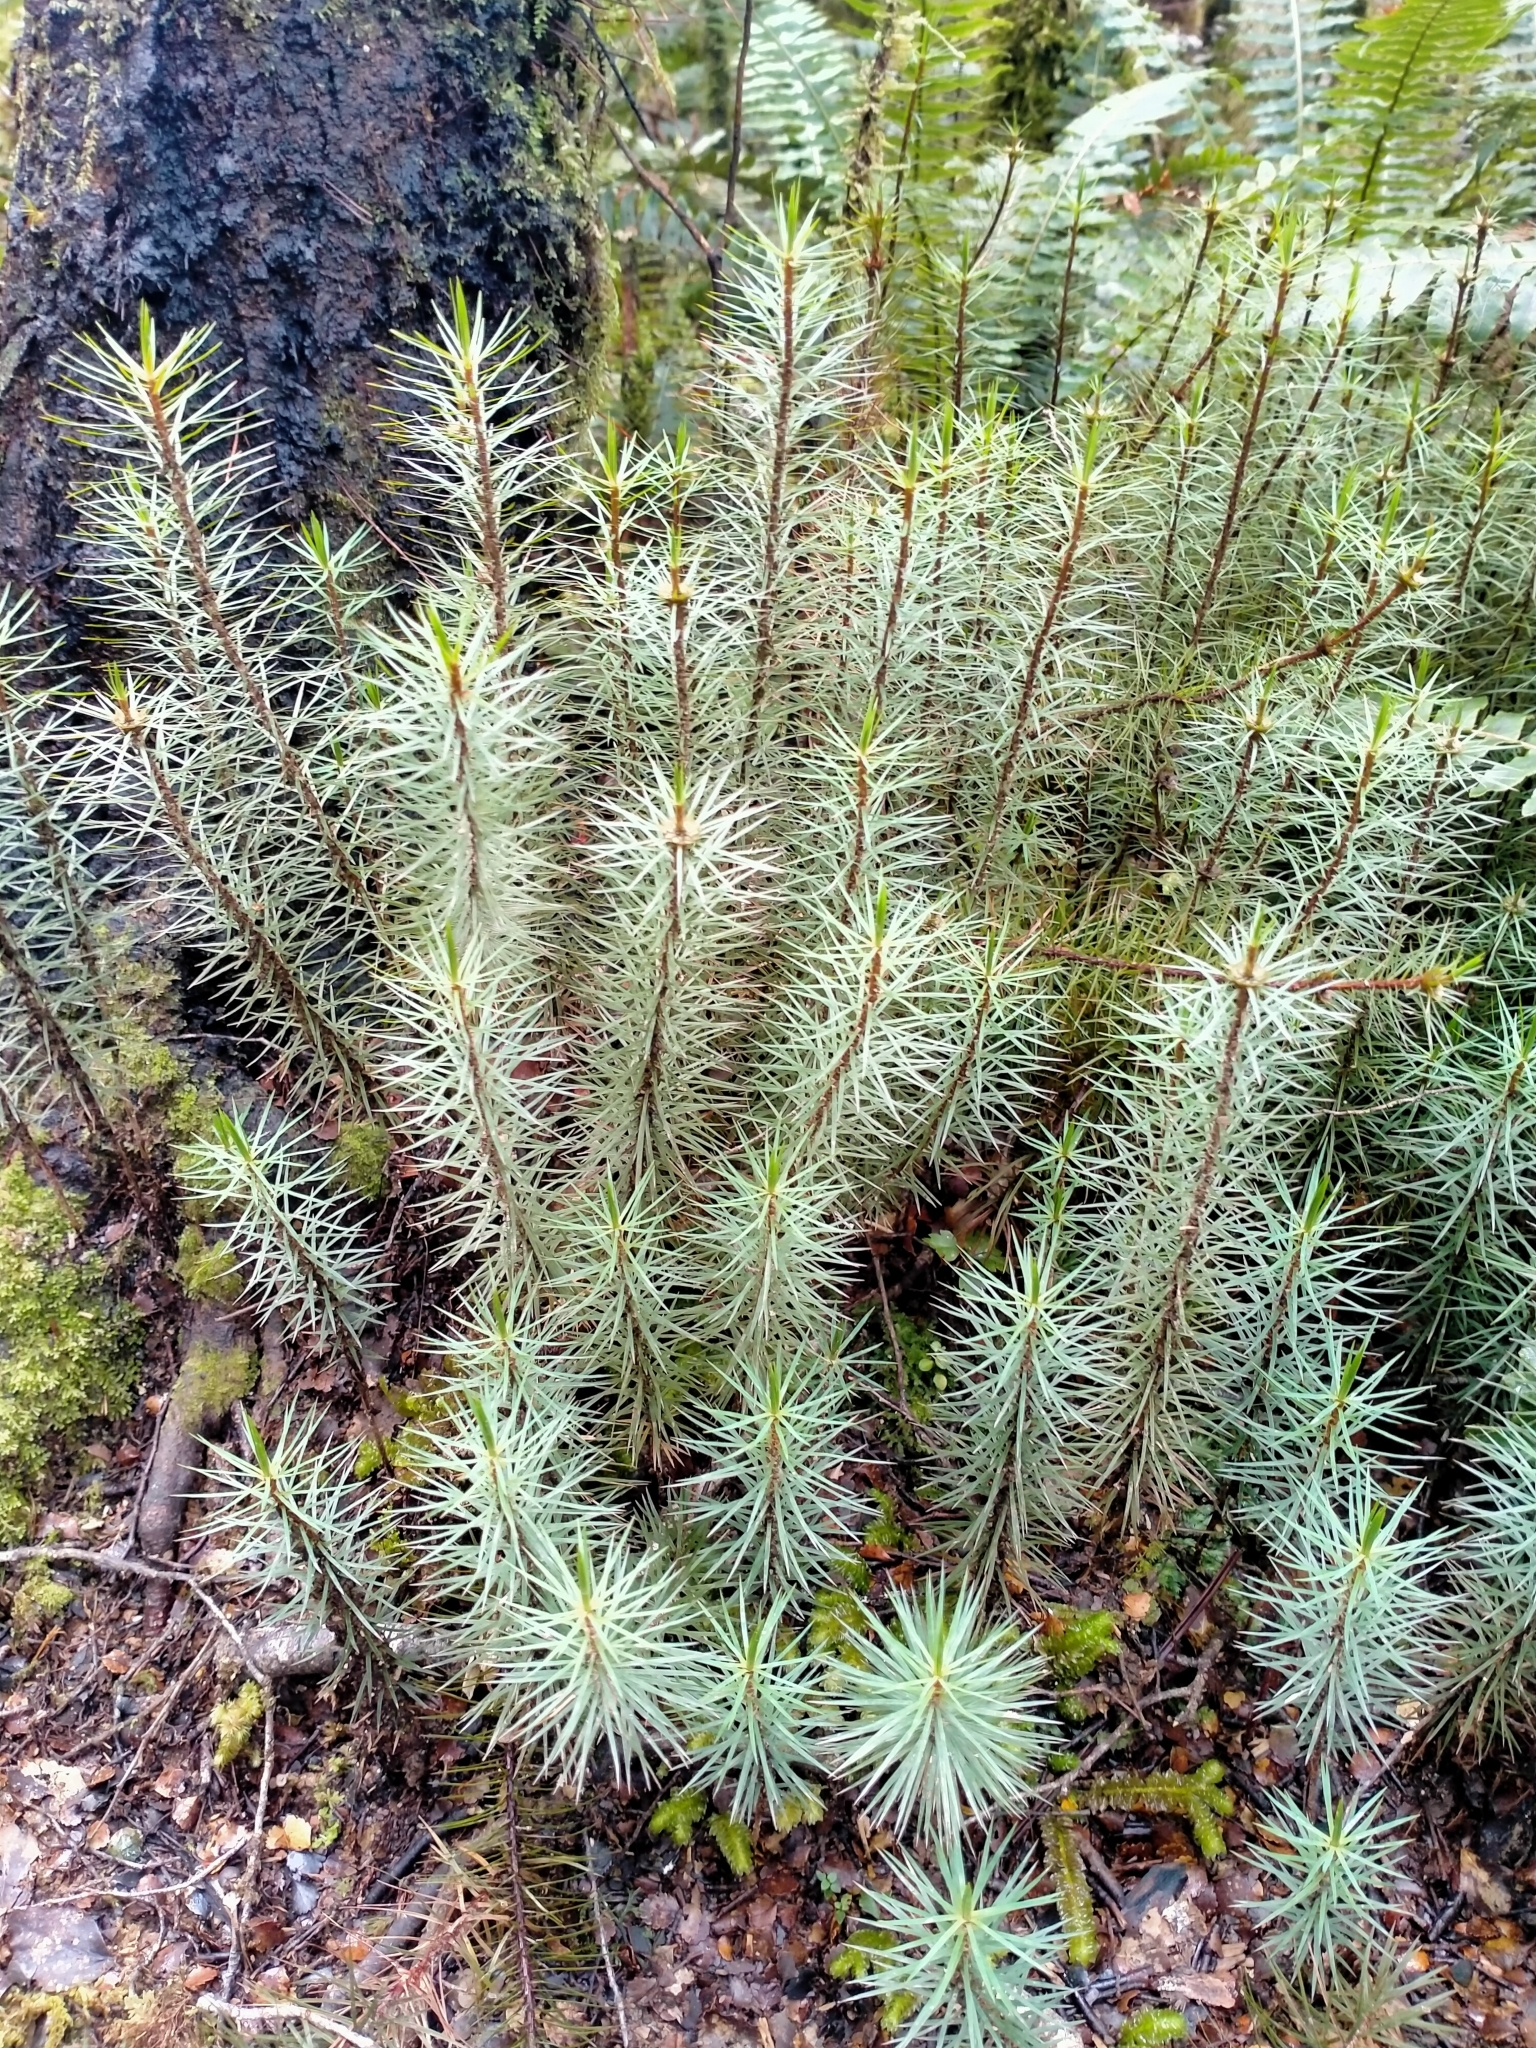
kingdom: Plantae
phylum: Bryophyta
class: Polytrichopsida
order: Polytrichales
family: Polytrichaceae
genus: Dawsonia
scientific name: Dawsonia superba
